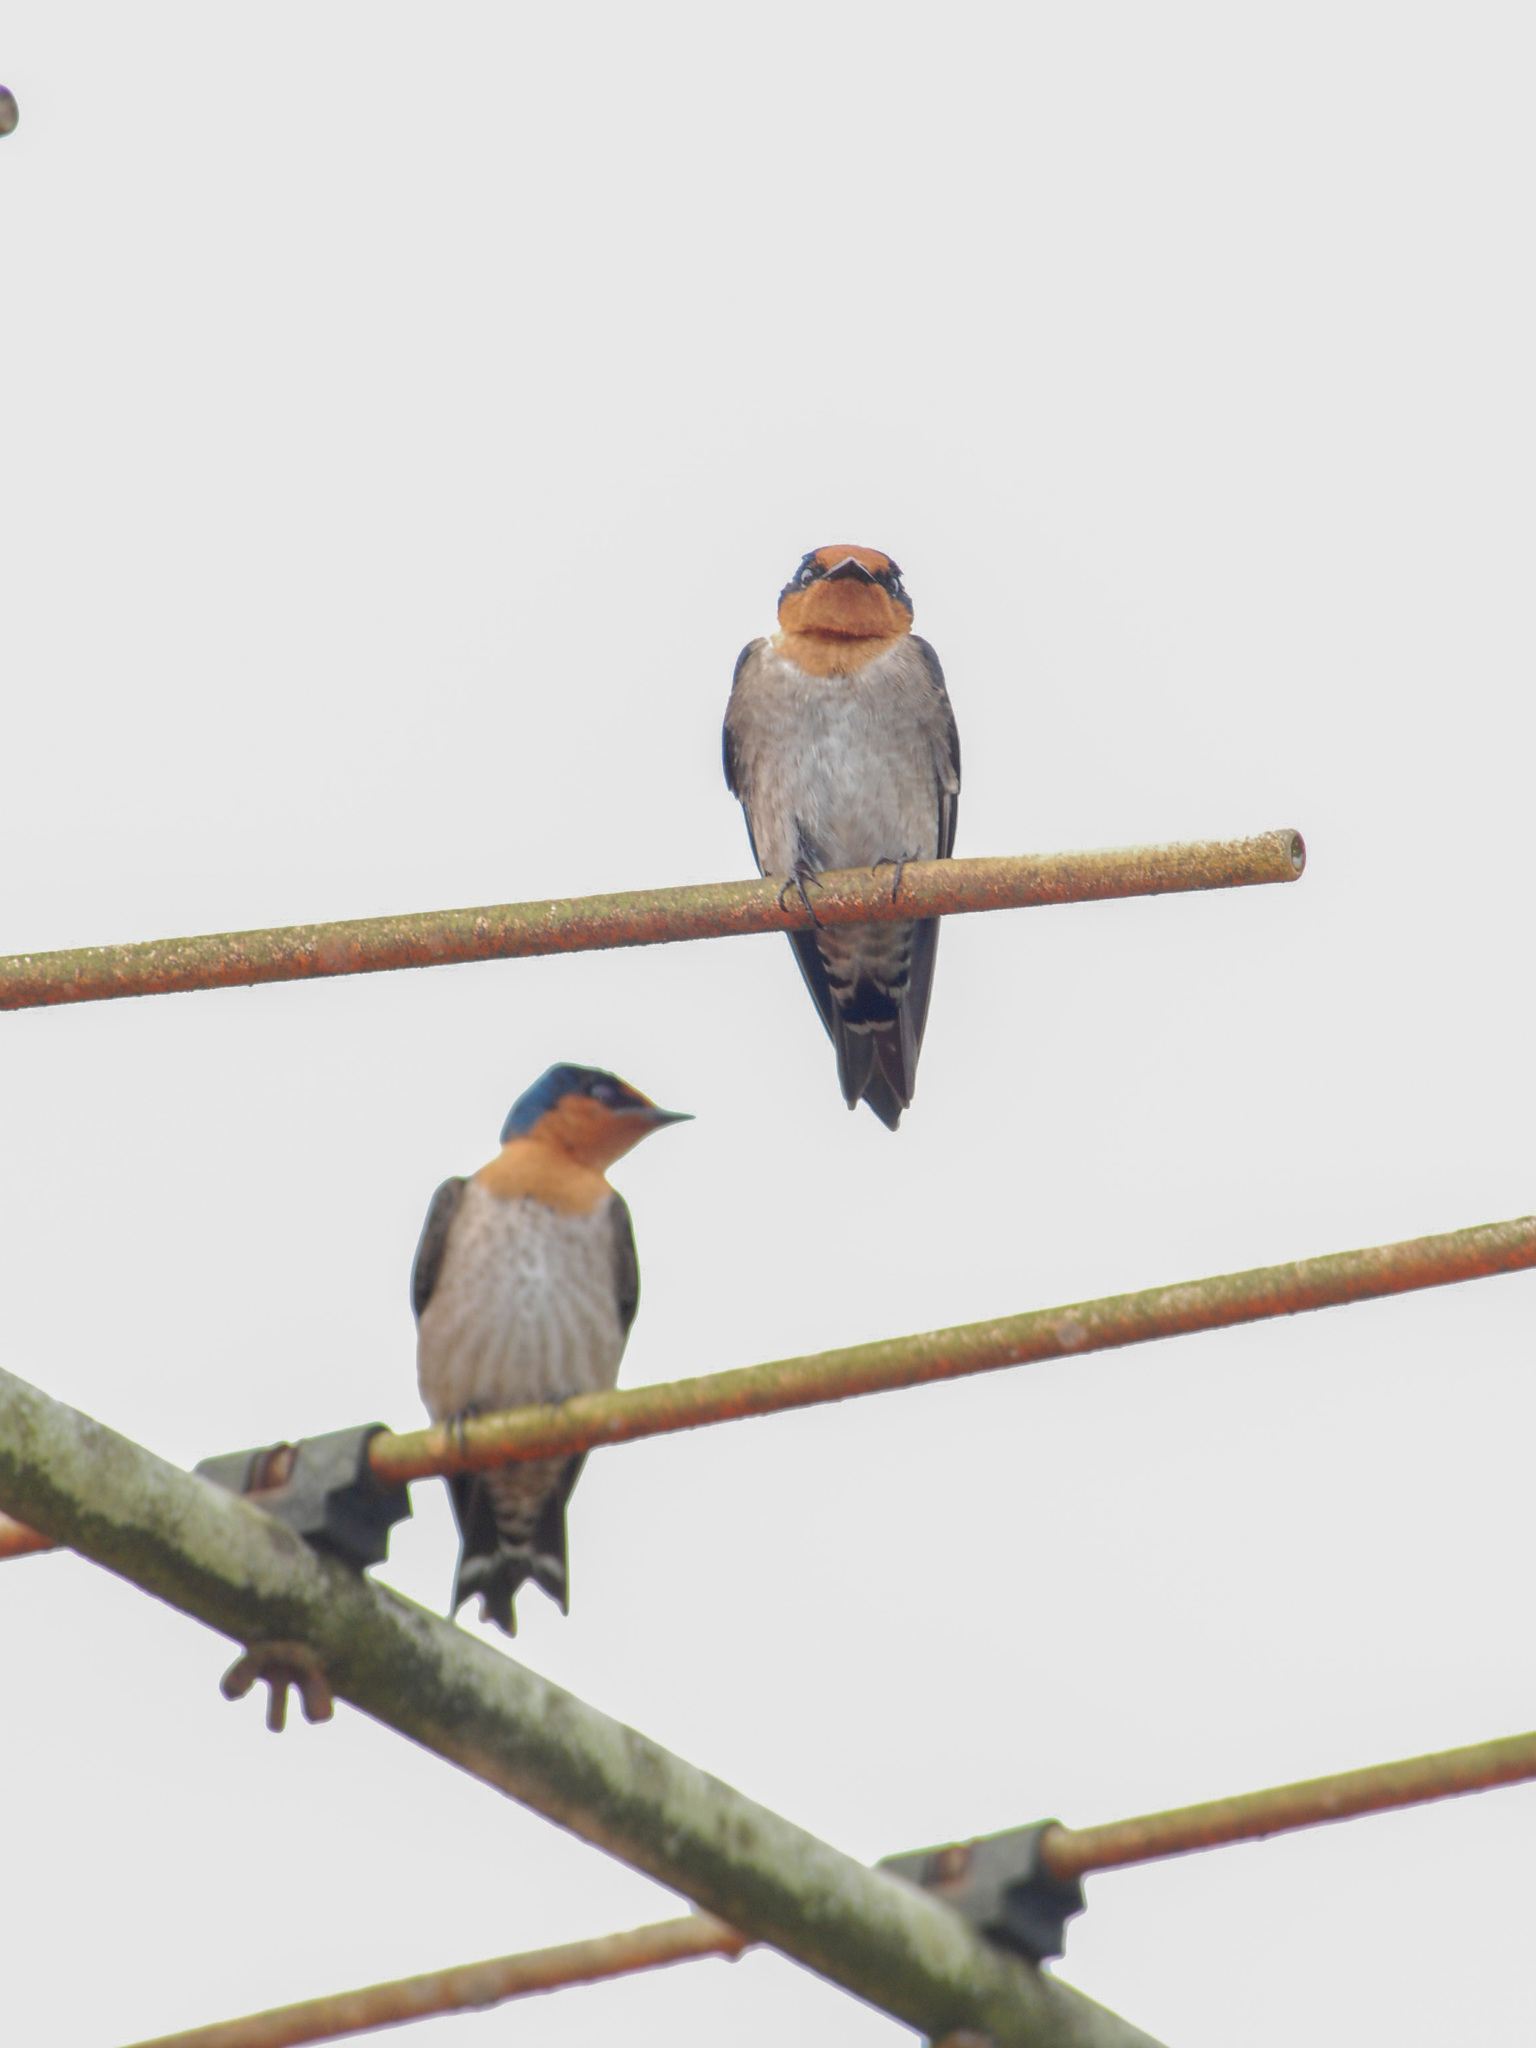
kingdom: Animalia
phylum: Chordata
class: Aves
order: Passeriformes
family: Hirundinidae
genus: Hirundo
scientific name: Hirundo tahitica
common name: Pacific swallow
